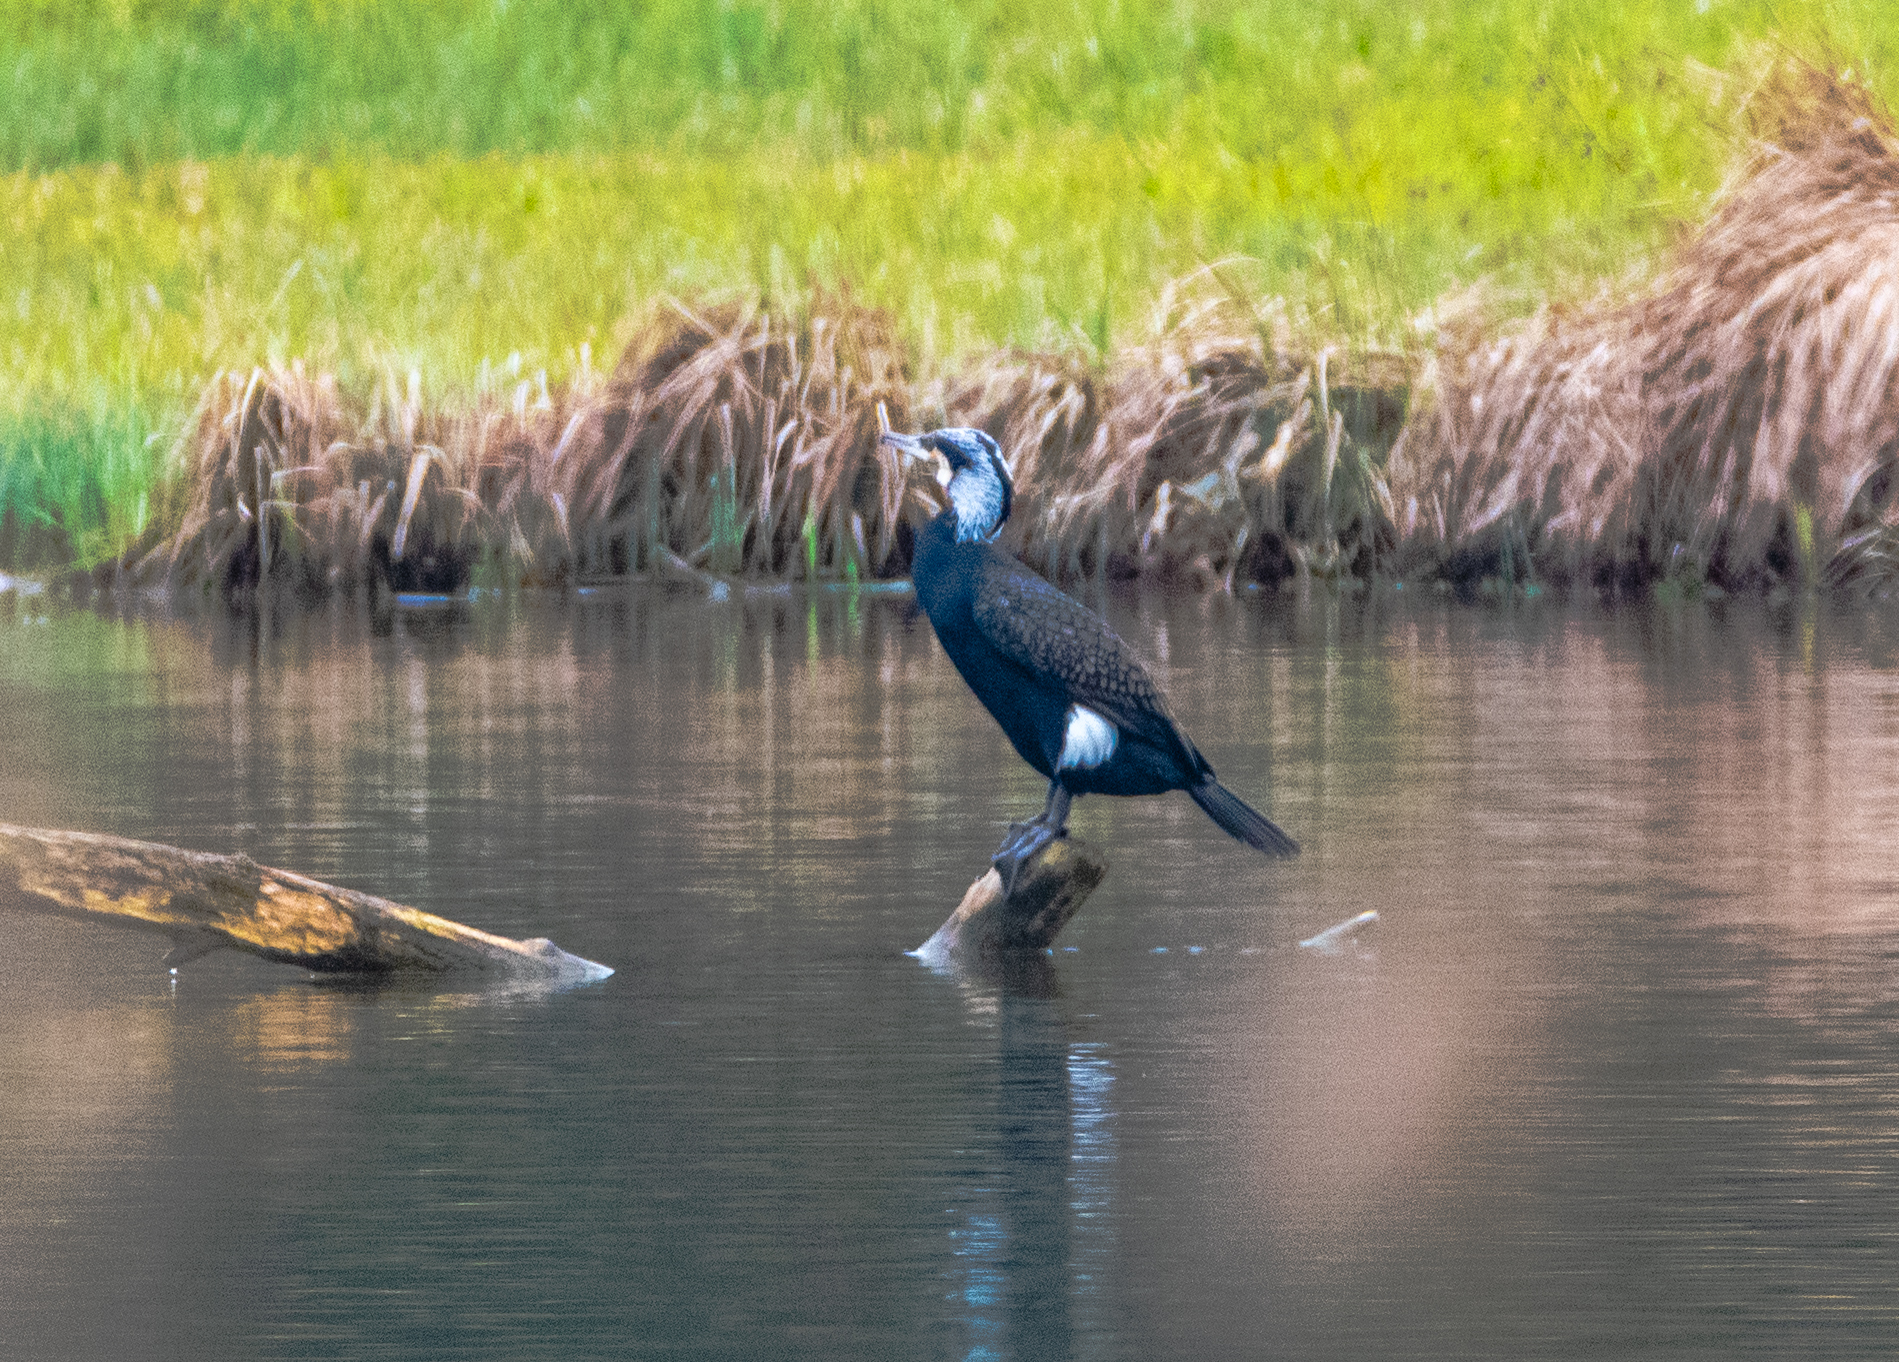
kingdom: Animalia
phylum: Chordata
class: Aves
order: Suliformes
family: Phalacrocoracidae
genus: Phalacrocorax
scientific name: Phalacrocorax carbo
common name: Great cormorant
